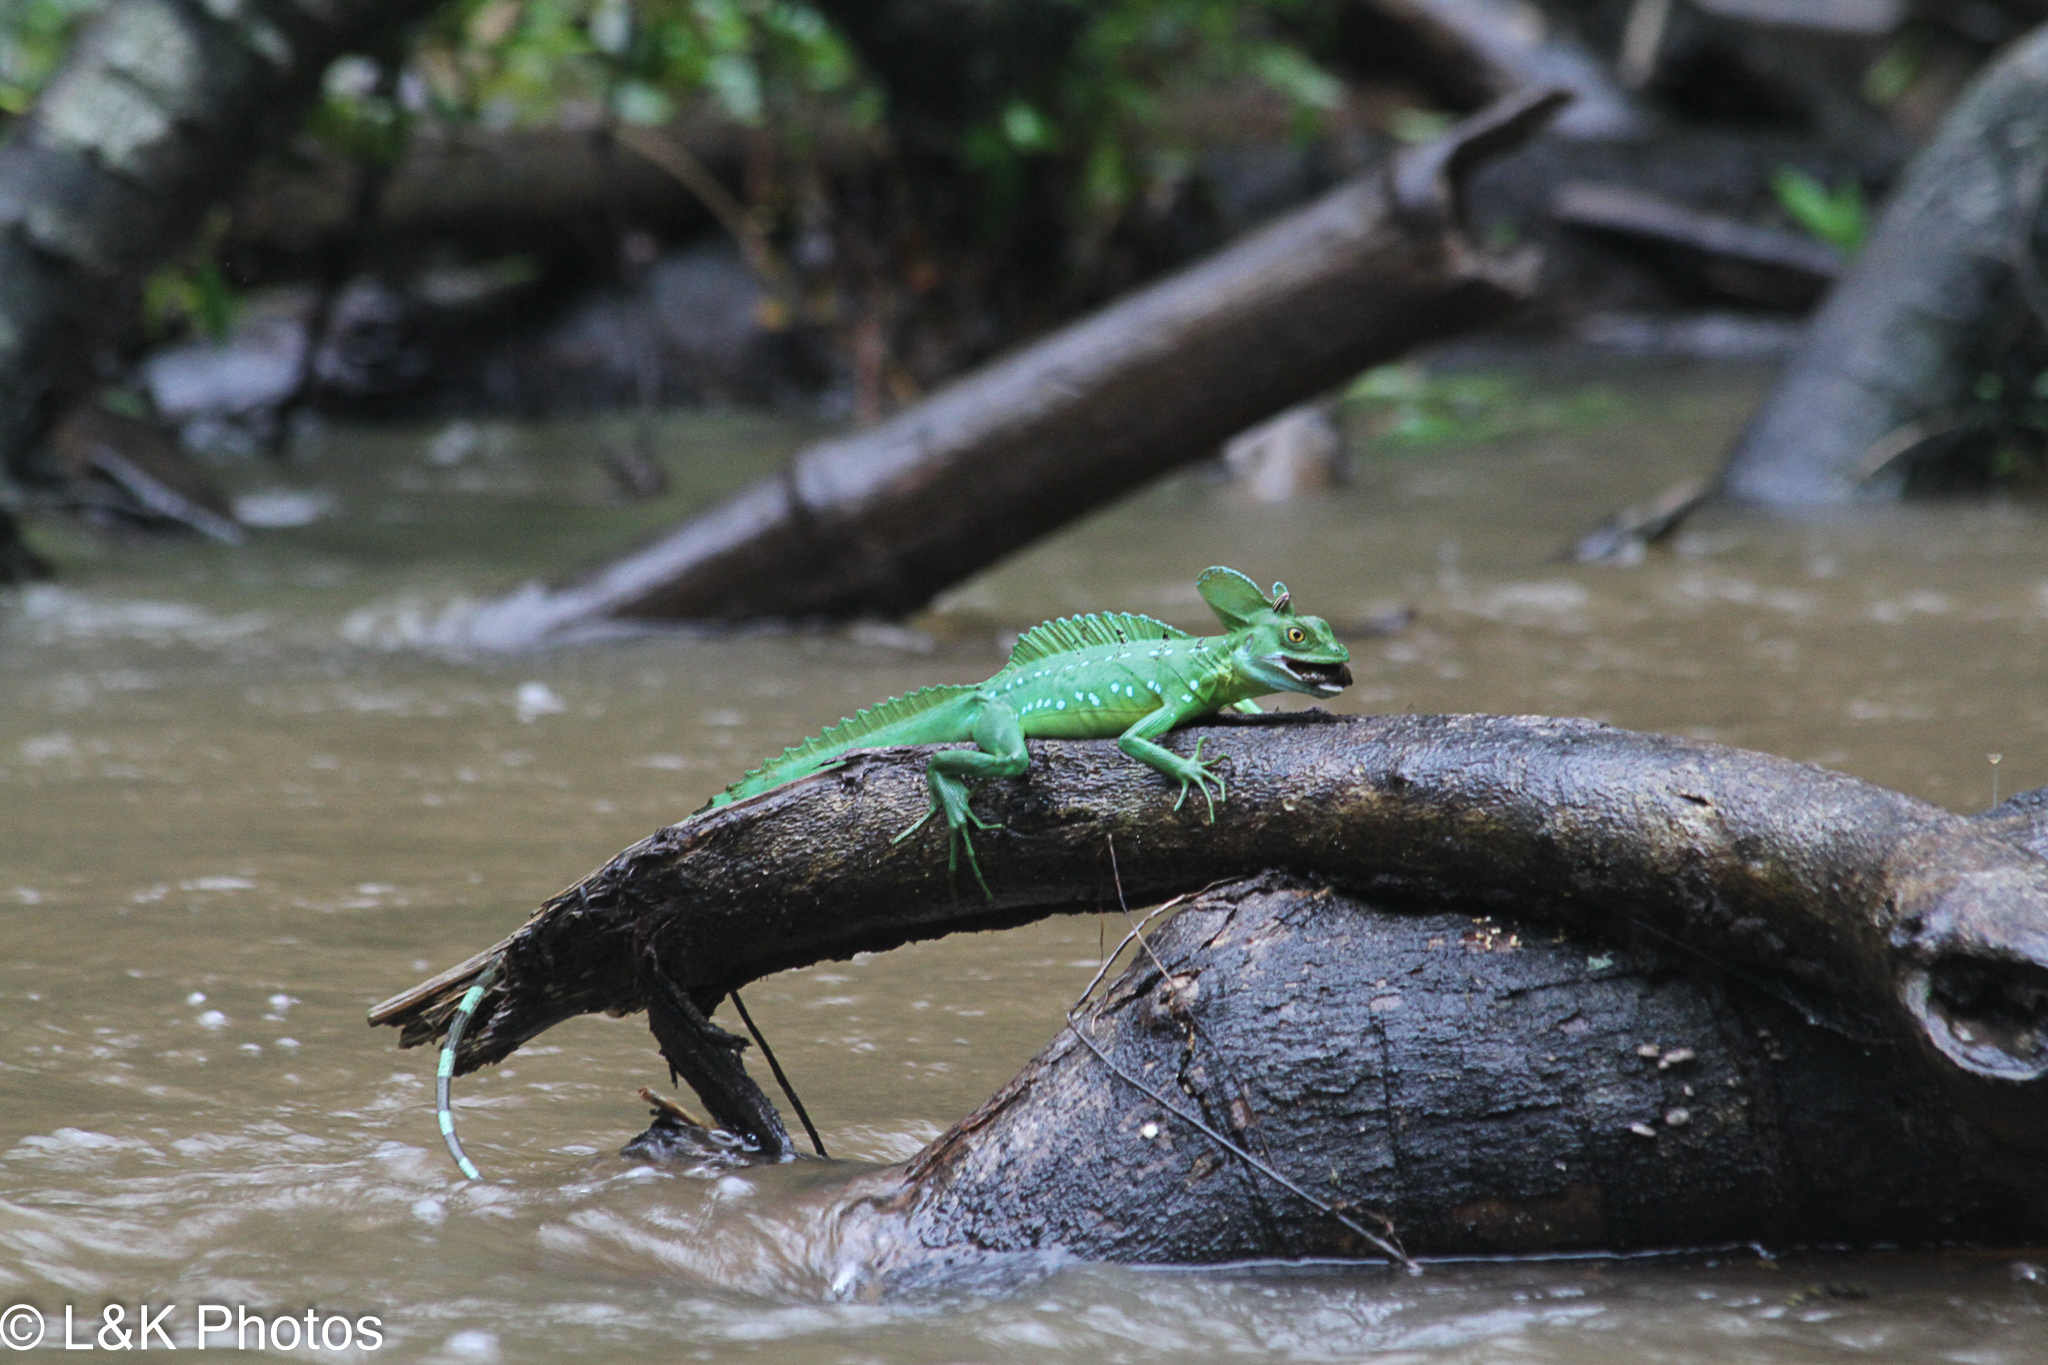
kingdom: Animalia
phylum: Chordata
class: Squamata
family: Corytophanidae
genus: Basiliscus
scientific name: Basiliscus plumifrons
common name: Green basilisk
